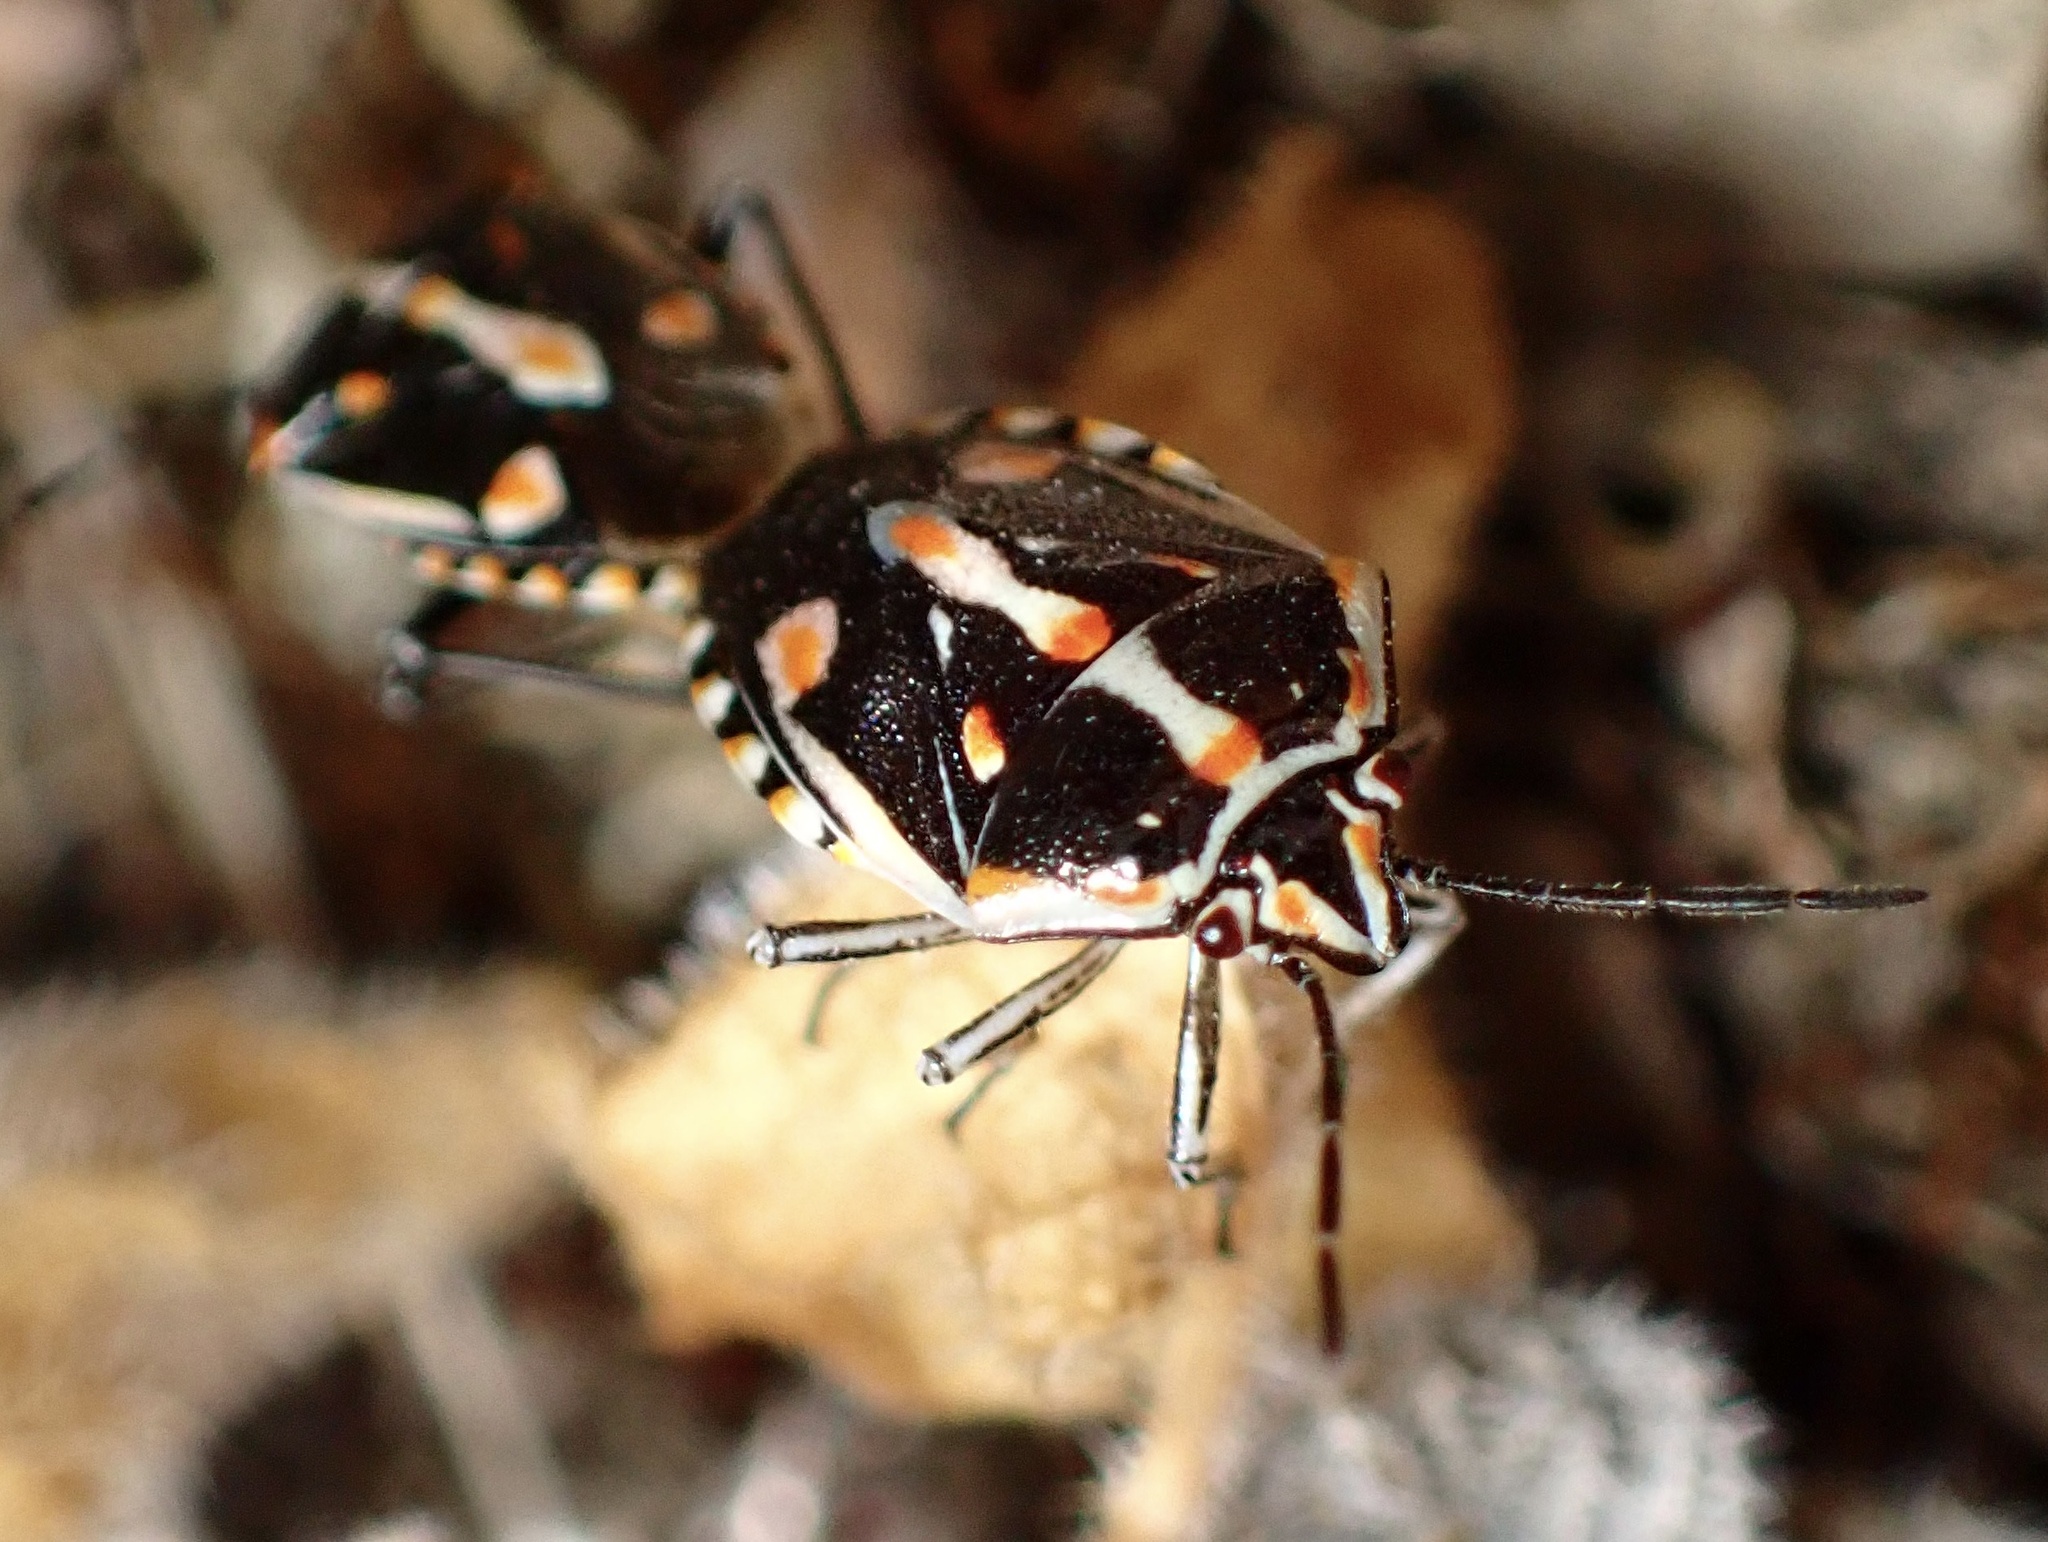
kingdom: Animalia
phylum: Arthropoda
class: Insecta
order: Hemiptera
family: Pentatomidae
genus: Bagrada
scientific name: Bagrada hilaris
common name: Bagrada bug
